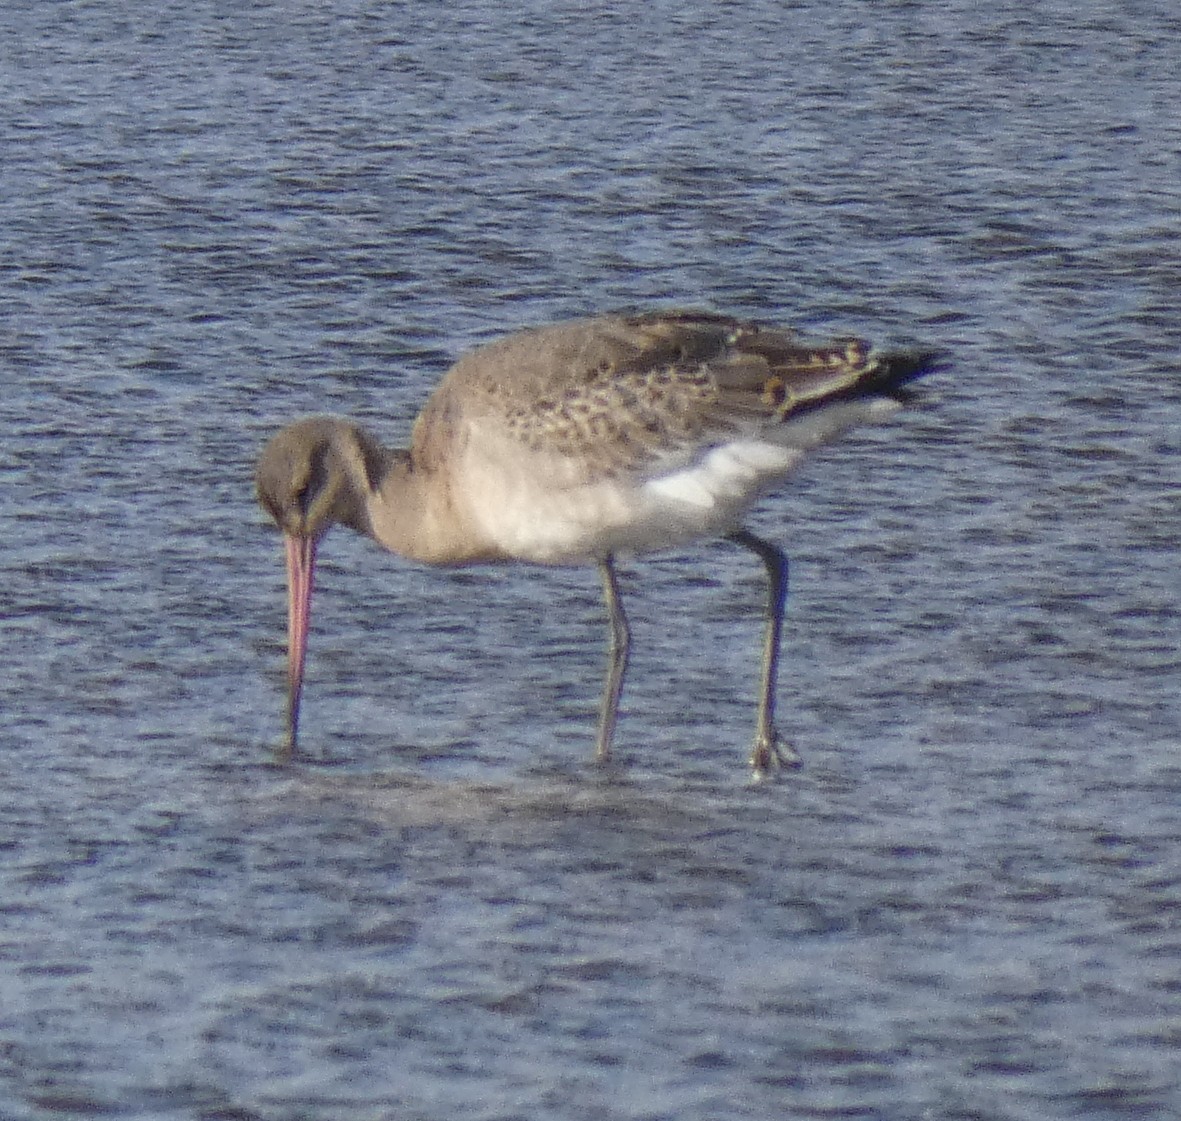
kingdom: Animalia
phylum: Chordata
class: Aves
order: Charadriiformes
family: Scolopacidae
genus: Limosa
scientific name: Limosa limosa
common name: Black-tailed godwit
